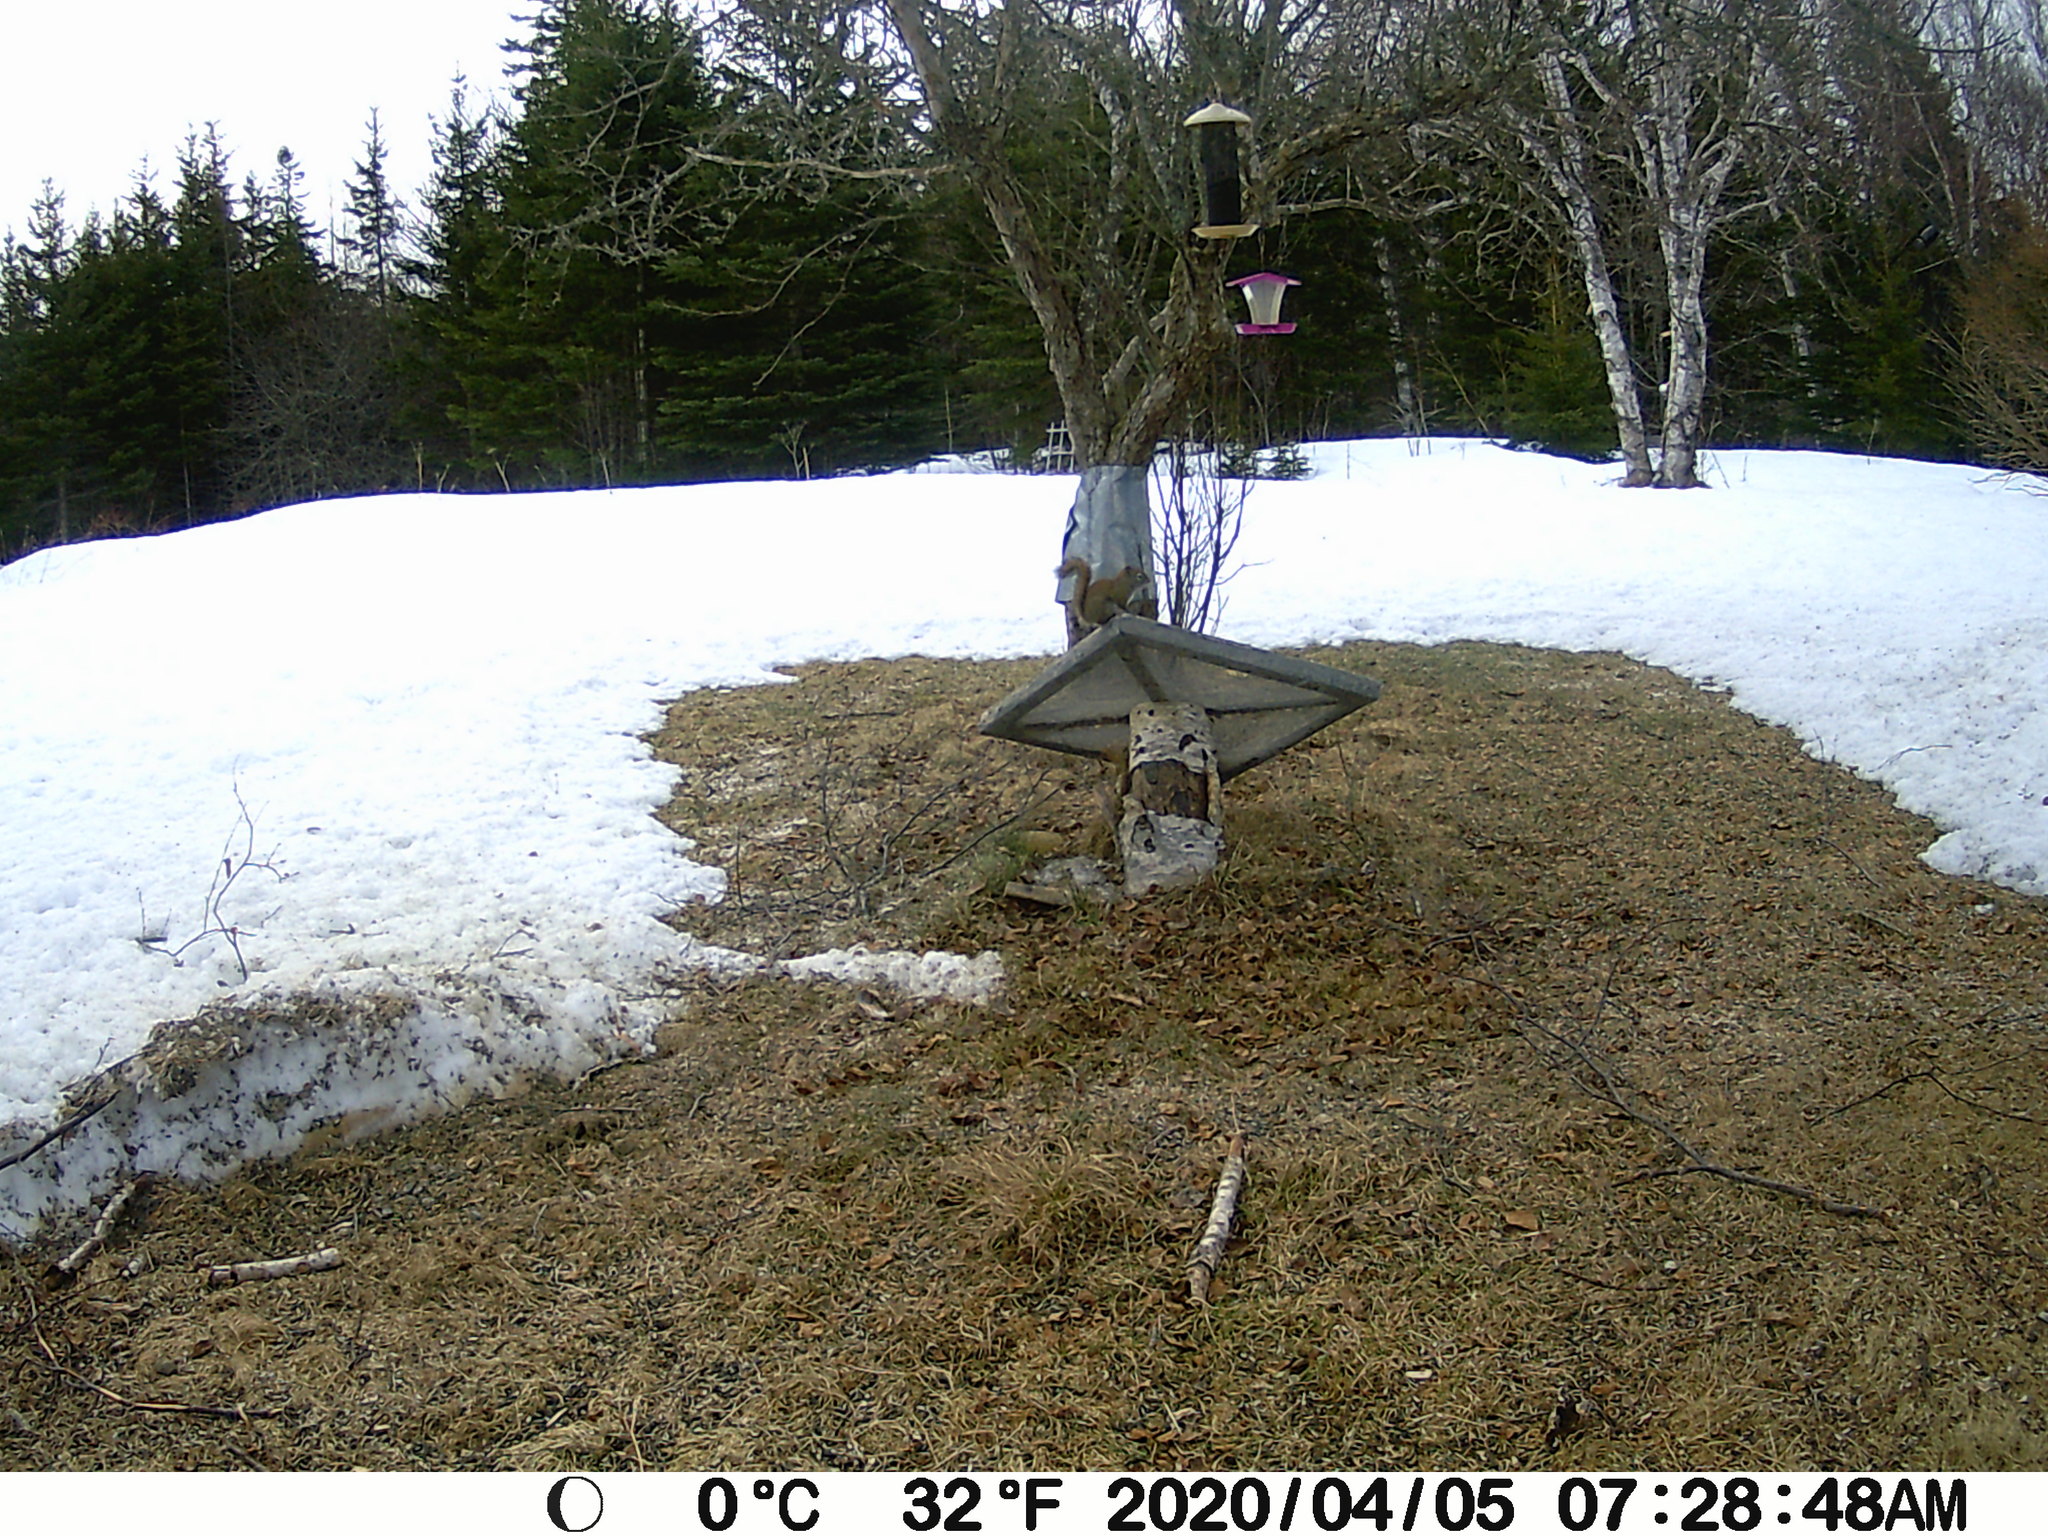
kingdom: Animalia
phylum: Chordata
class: Mammalia
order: Rodentia
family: Sciuridae
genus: Tamiasciurus
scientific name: Tamiasciurus hudsonicus
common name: Red squirrel
